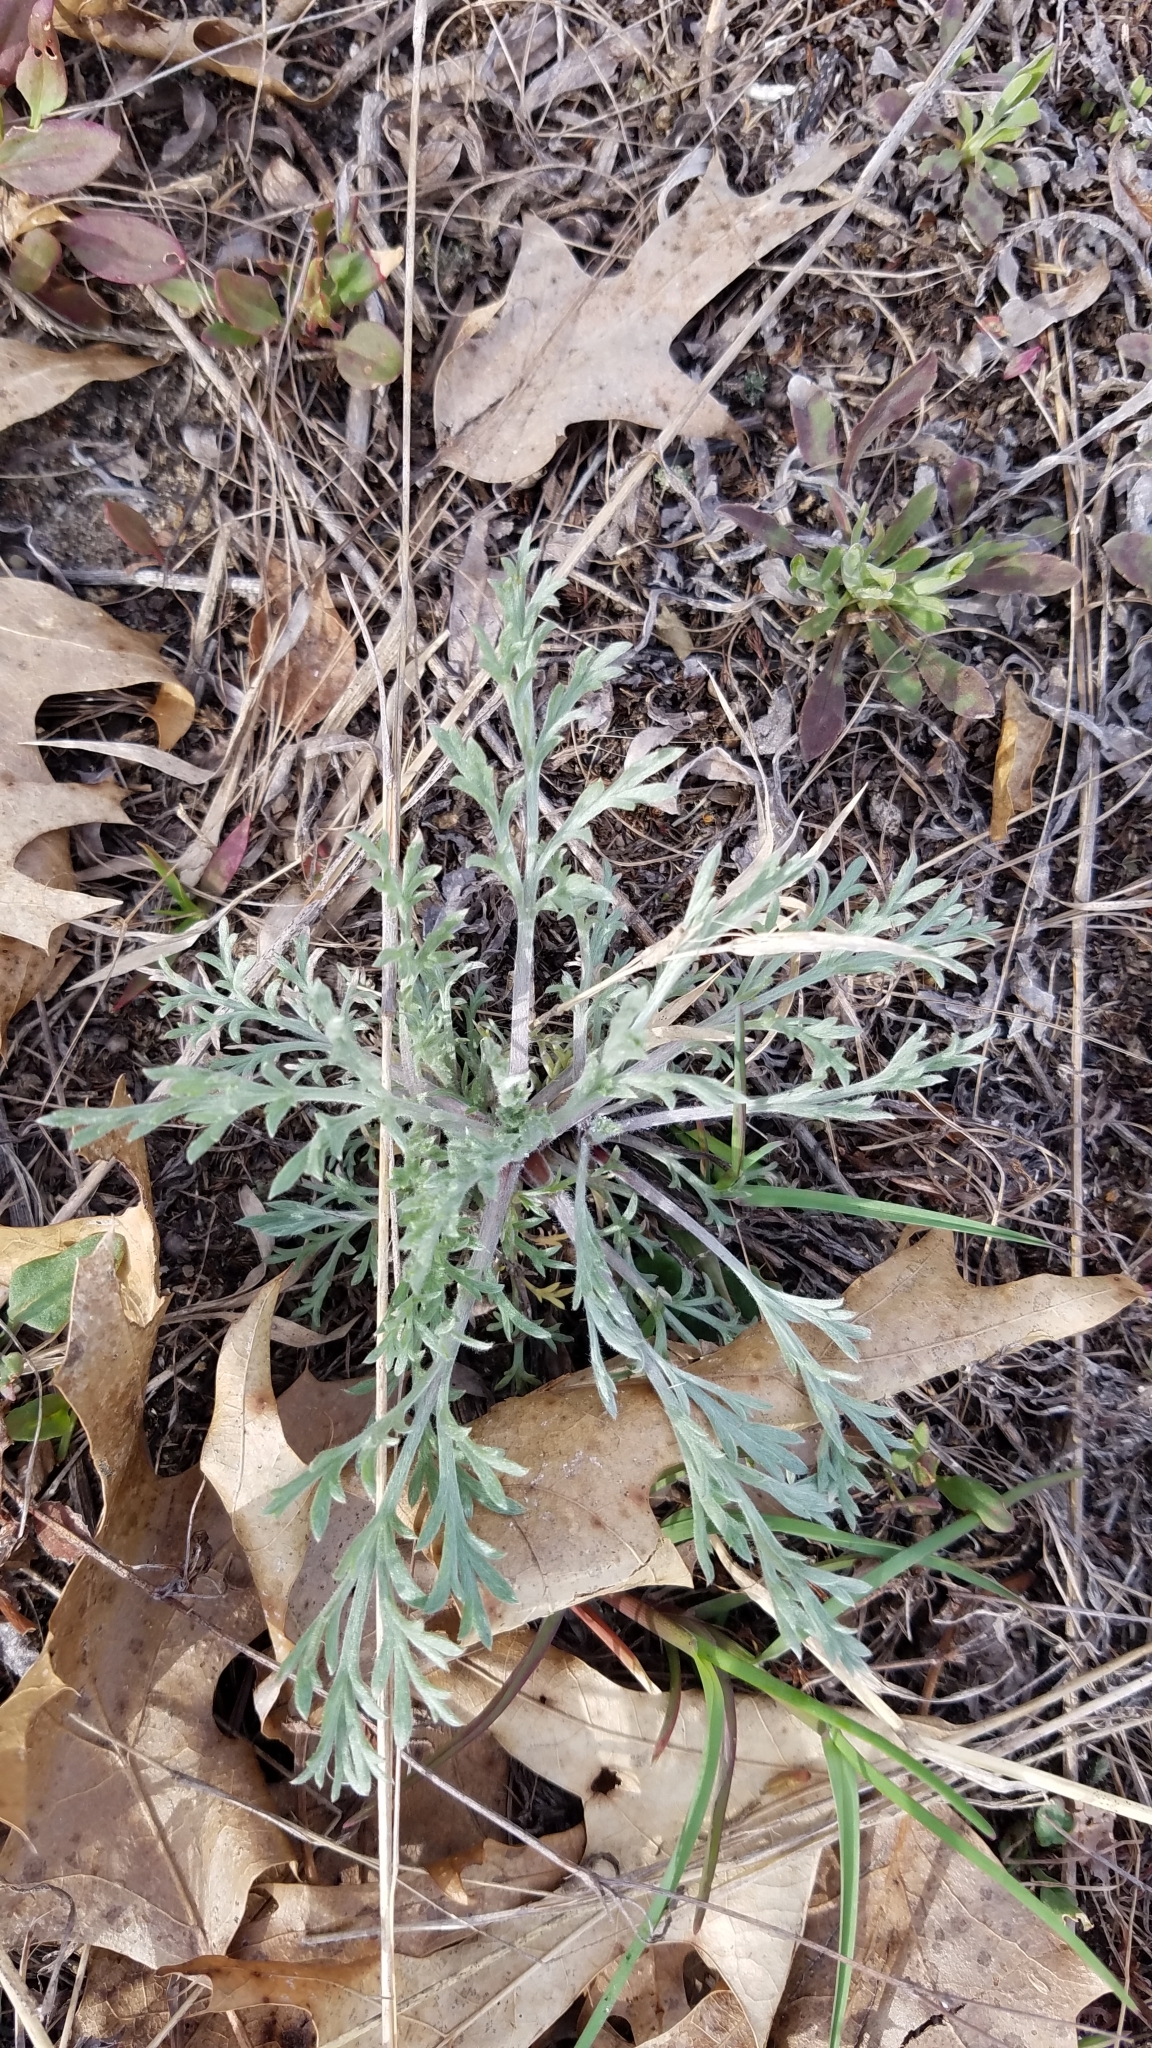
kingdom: Plantae
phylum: Tracheophyta
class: Magnoliopsida
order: Asterales
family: Asteraceae
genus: Artemisia
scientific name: Artemisia campestris
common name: Field wormwood
